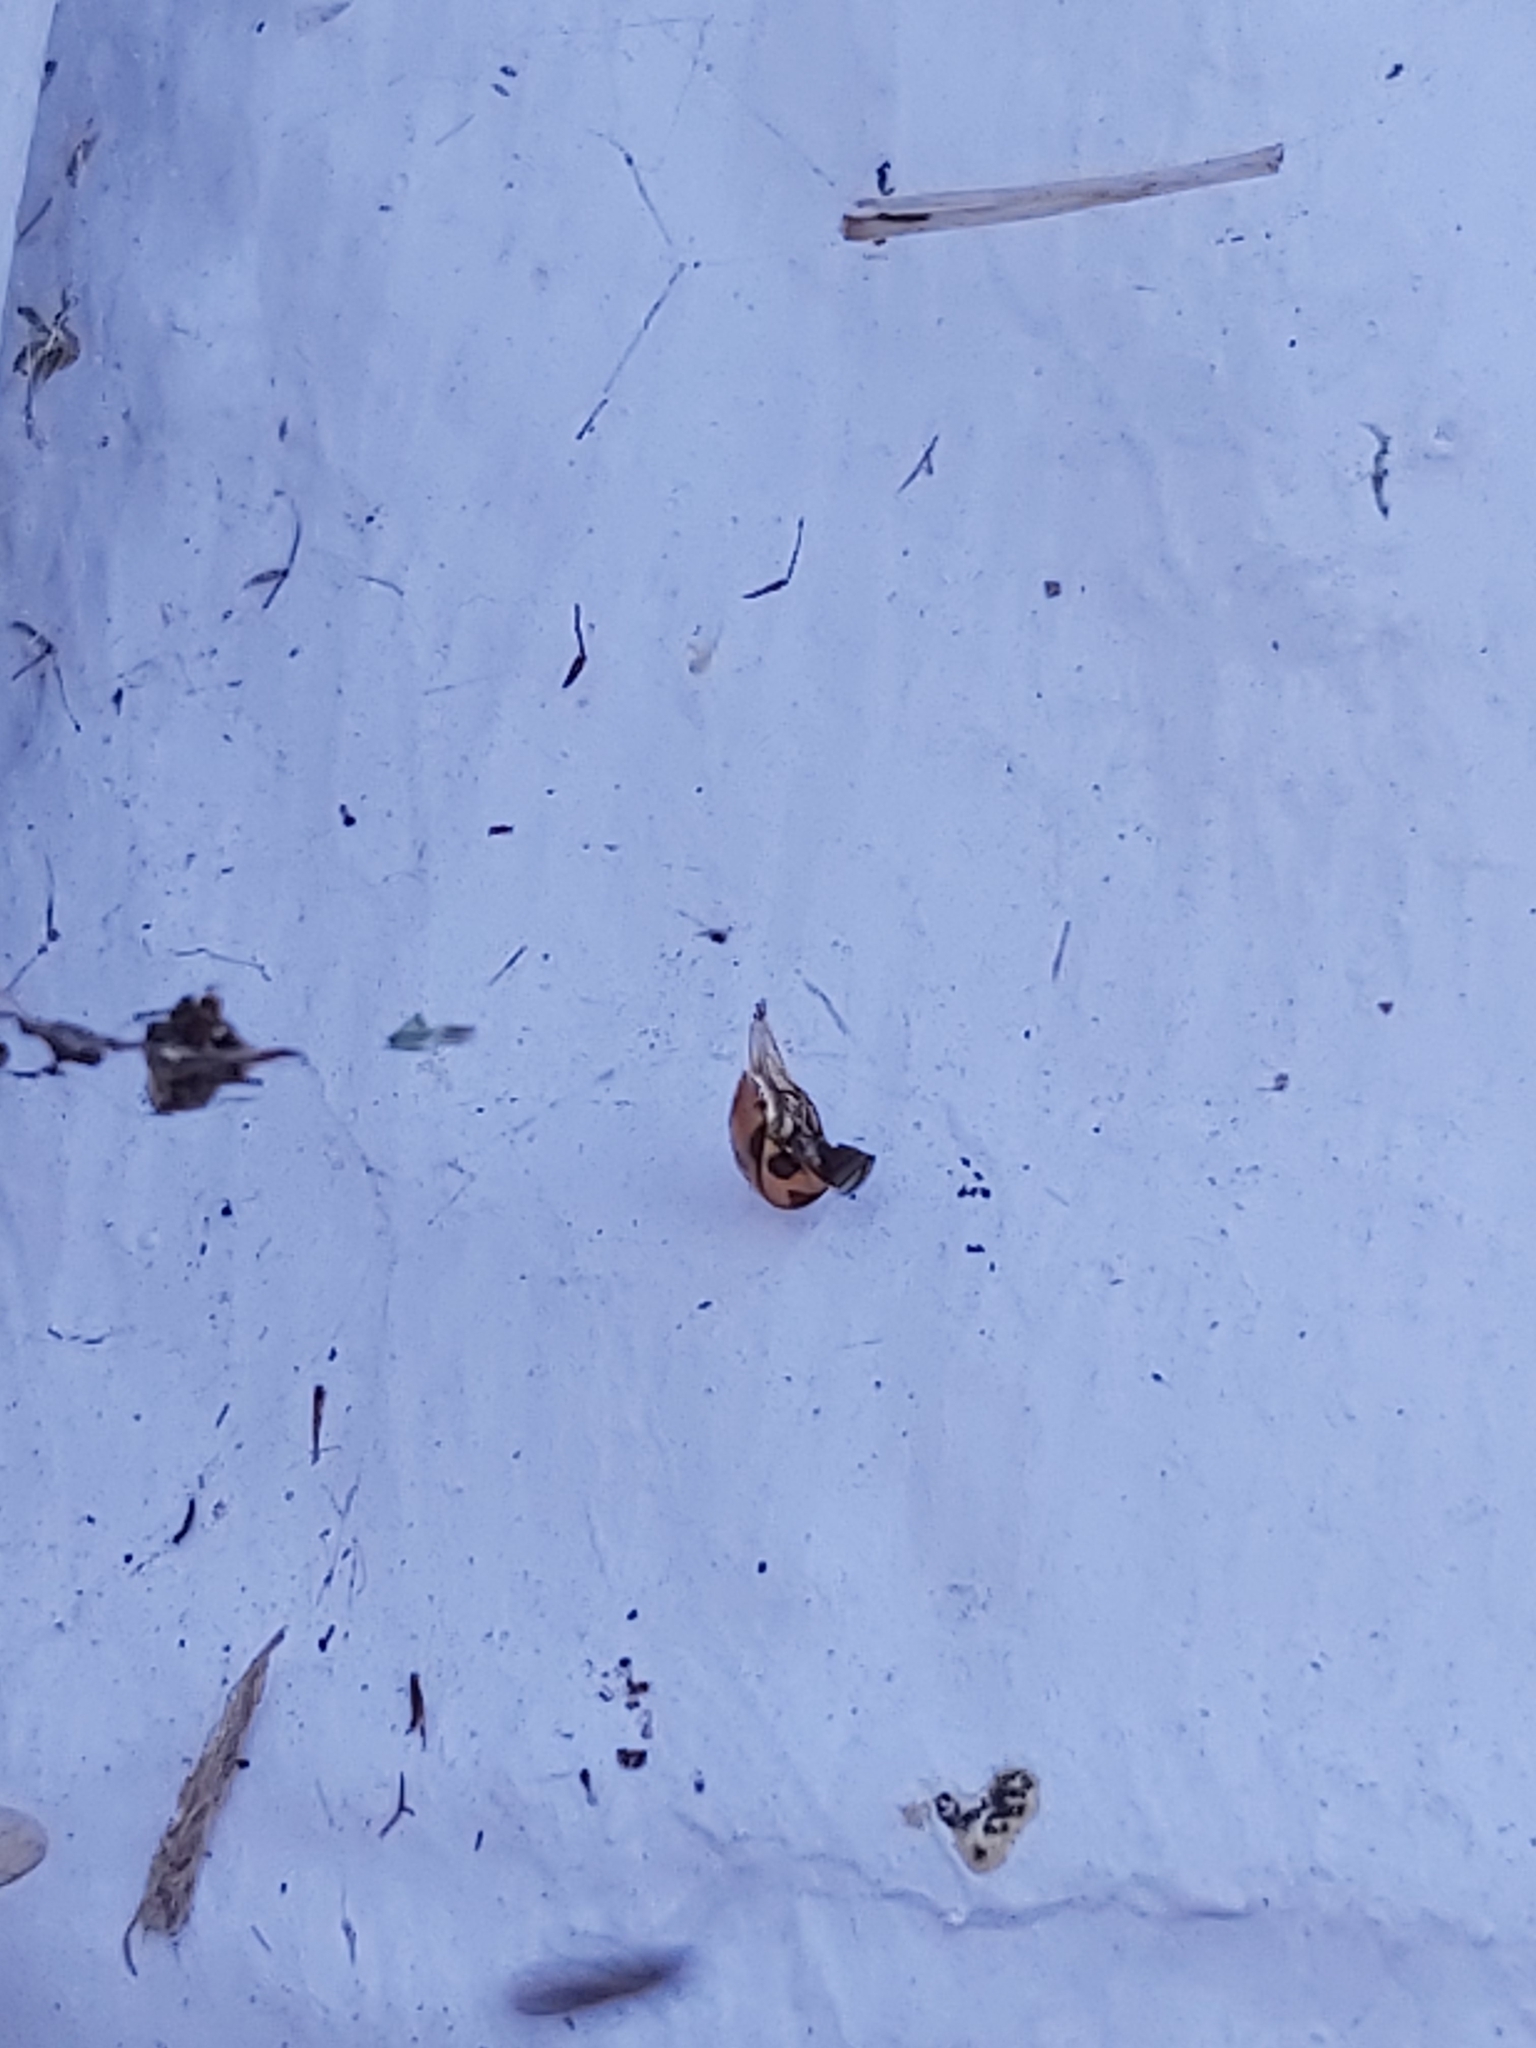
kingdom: Animalia
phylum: Arthropoda
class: Insecta
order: Coleoptera
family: Coccinellidae
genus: Coccinella
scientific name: Coccinella transversalis
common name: Transverse lady beetle
